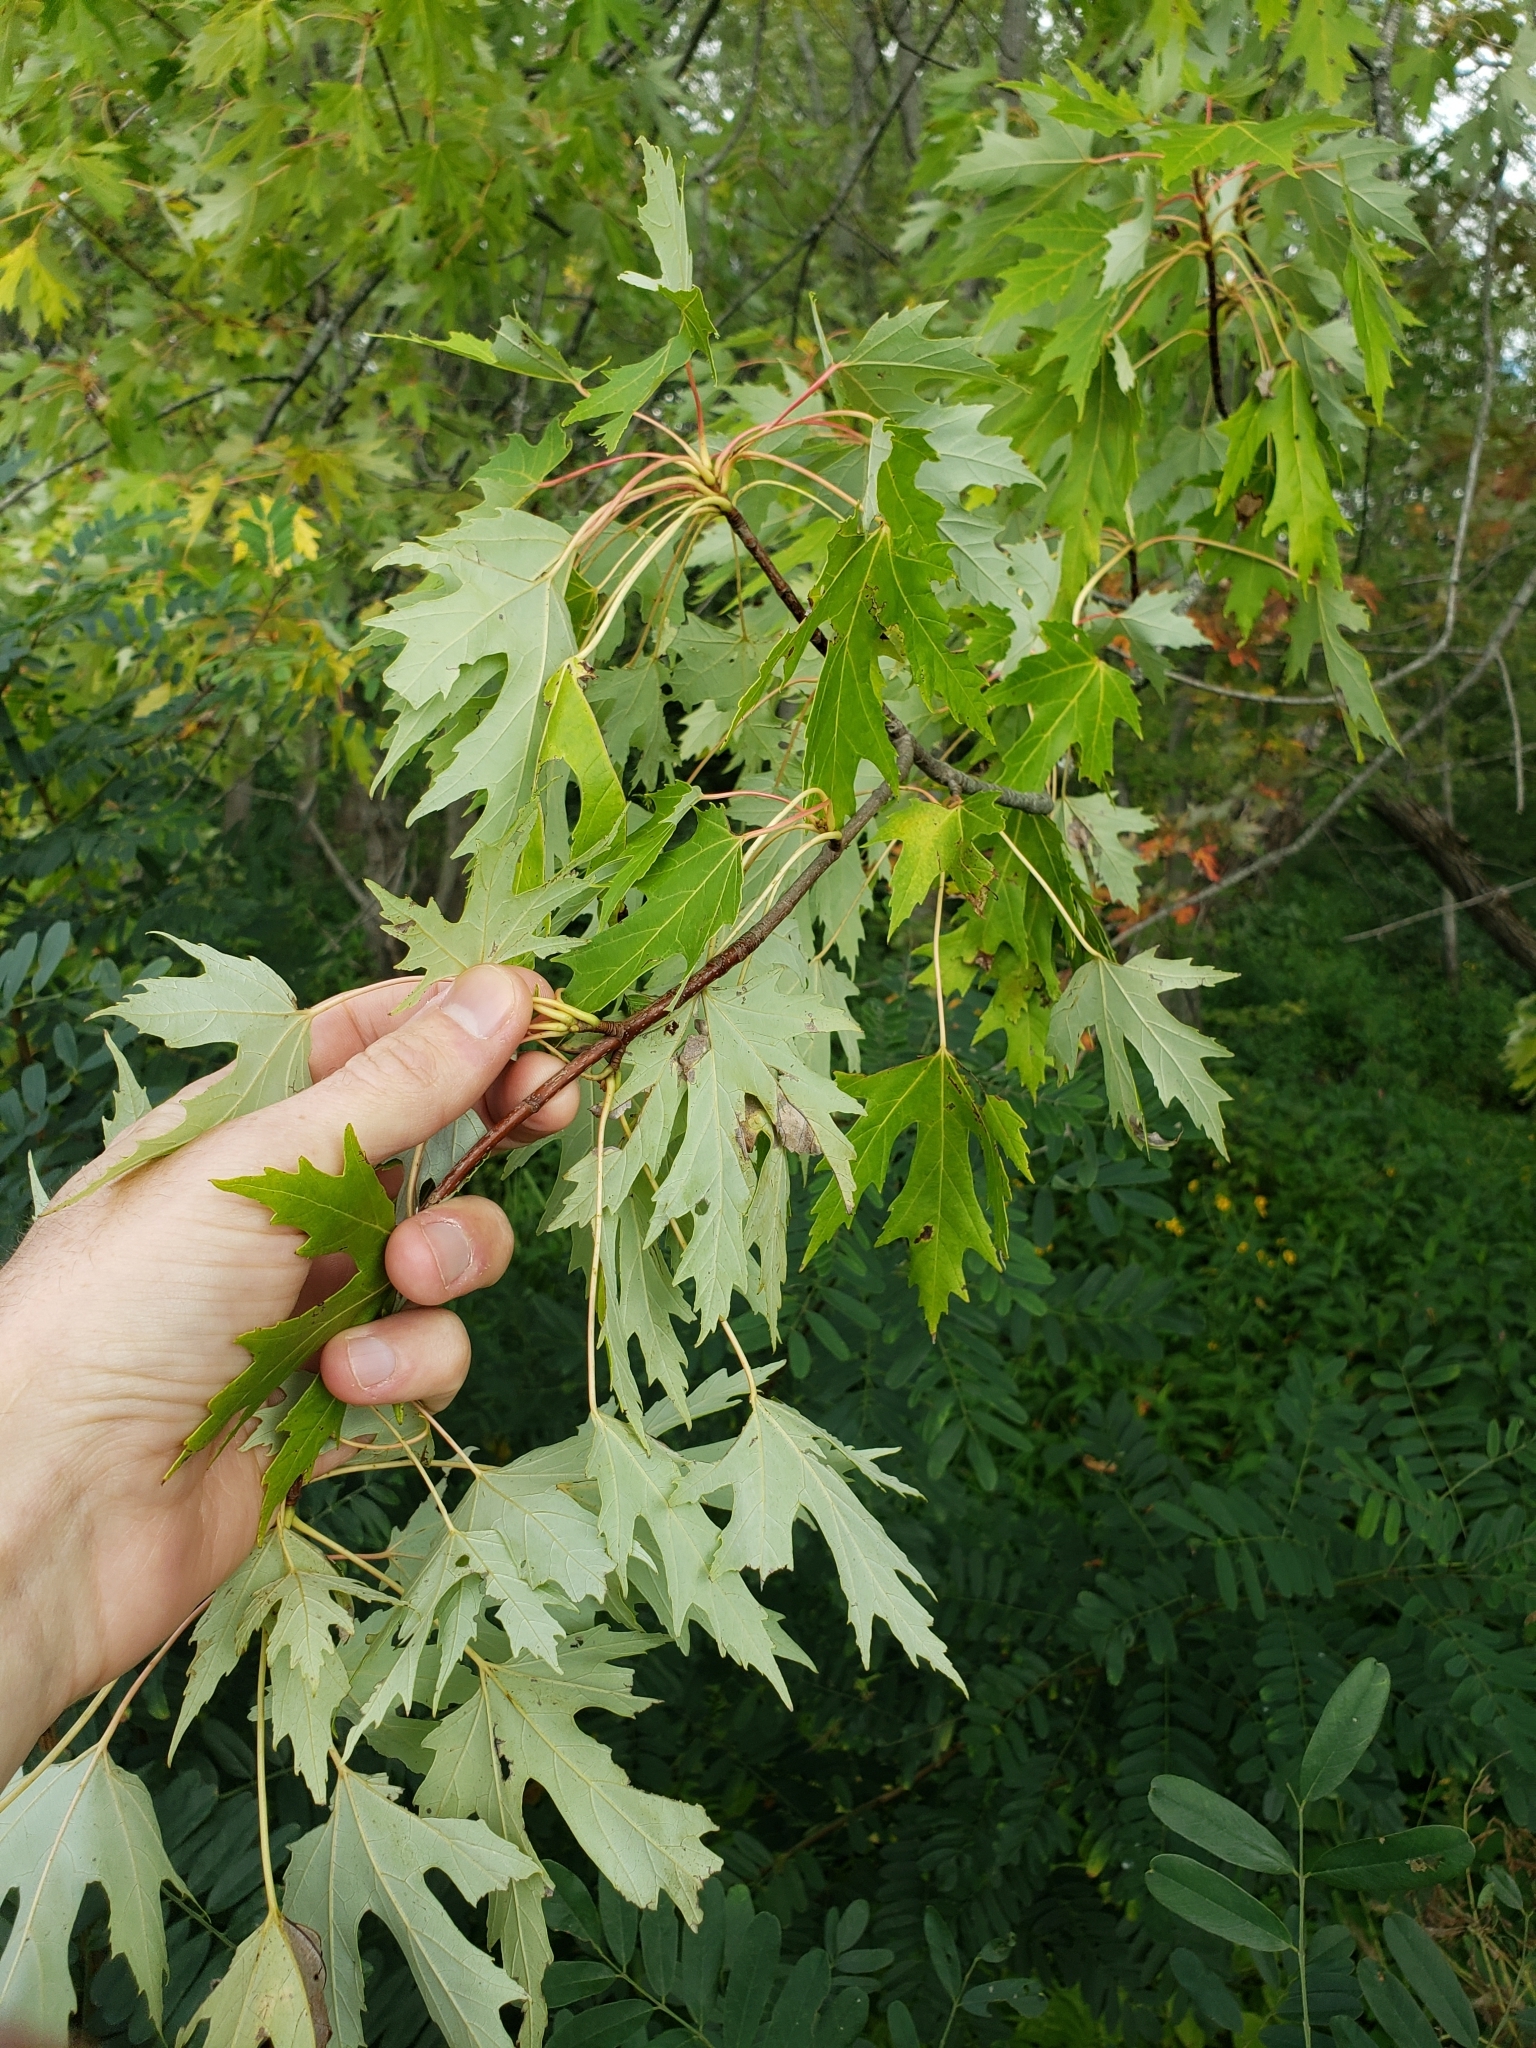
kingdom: Plantae
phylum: Tracheophyta
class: Magnoliopsida
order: Sapindales
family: Sapindaceae
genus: Acer
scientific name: Acer saccharinum
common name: Silver maple
